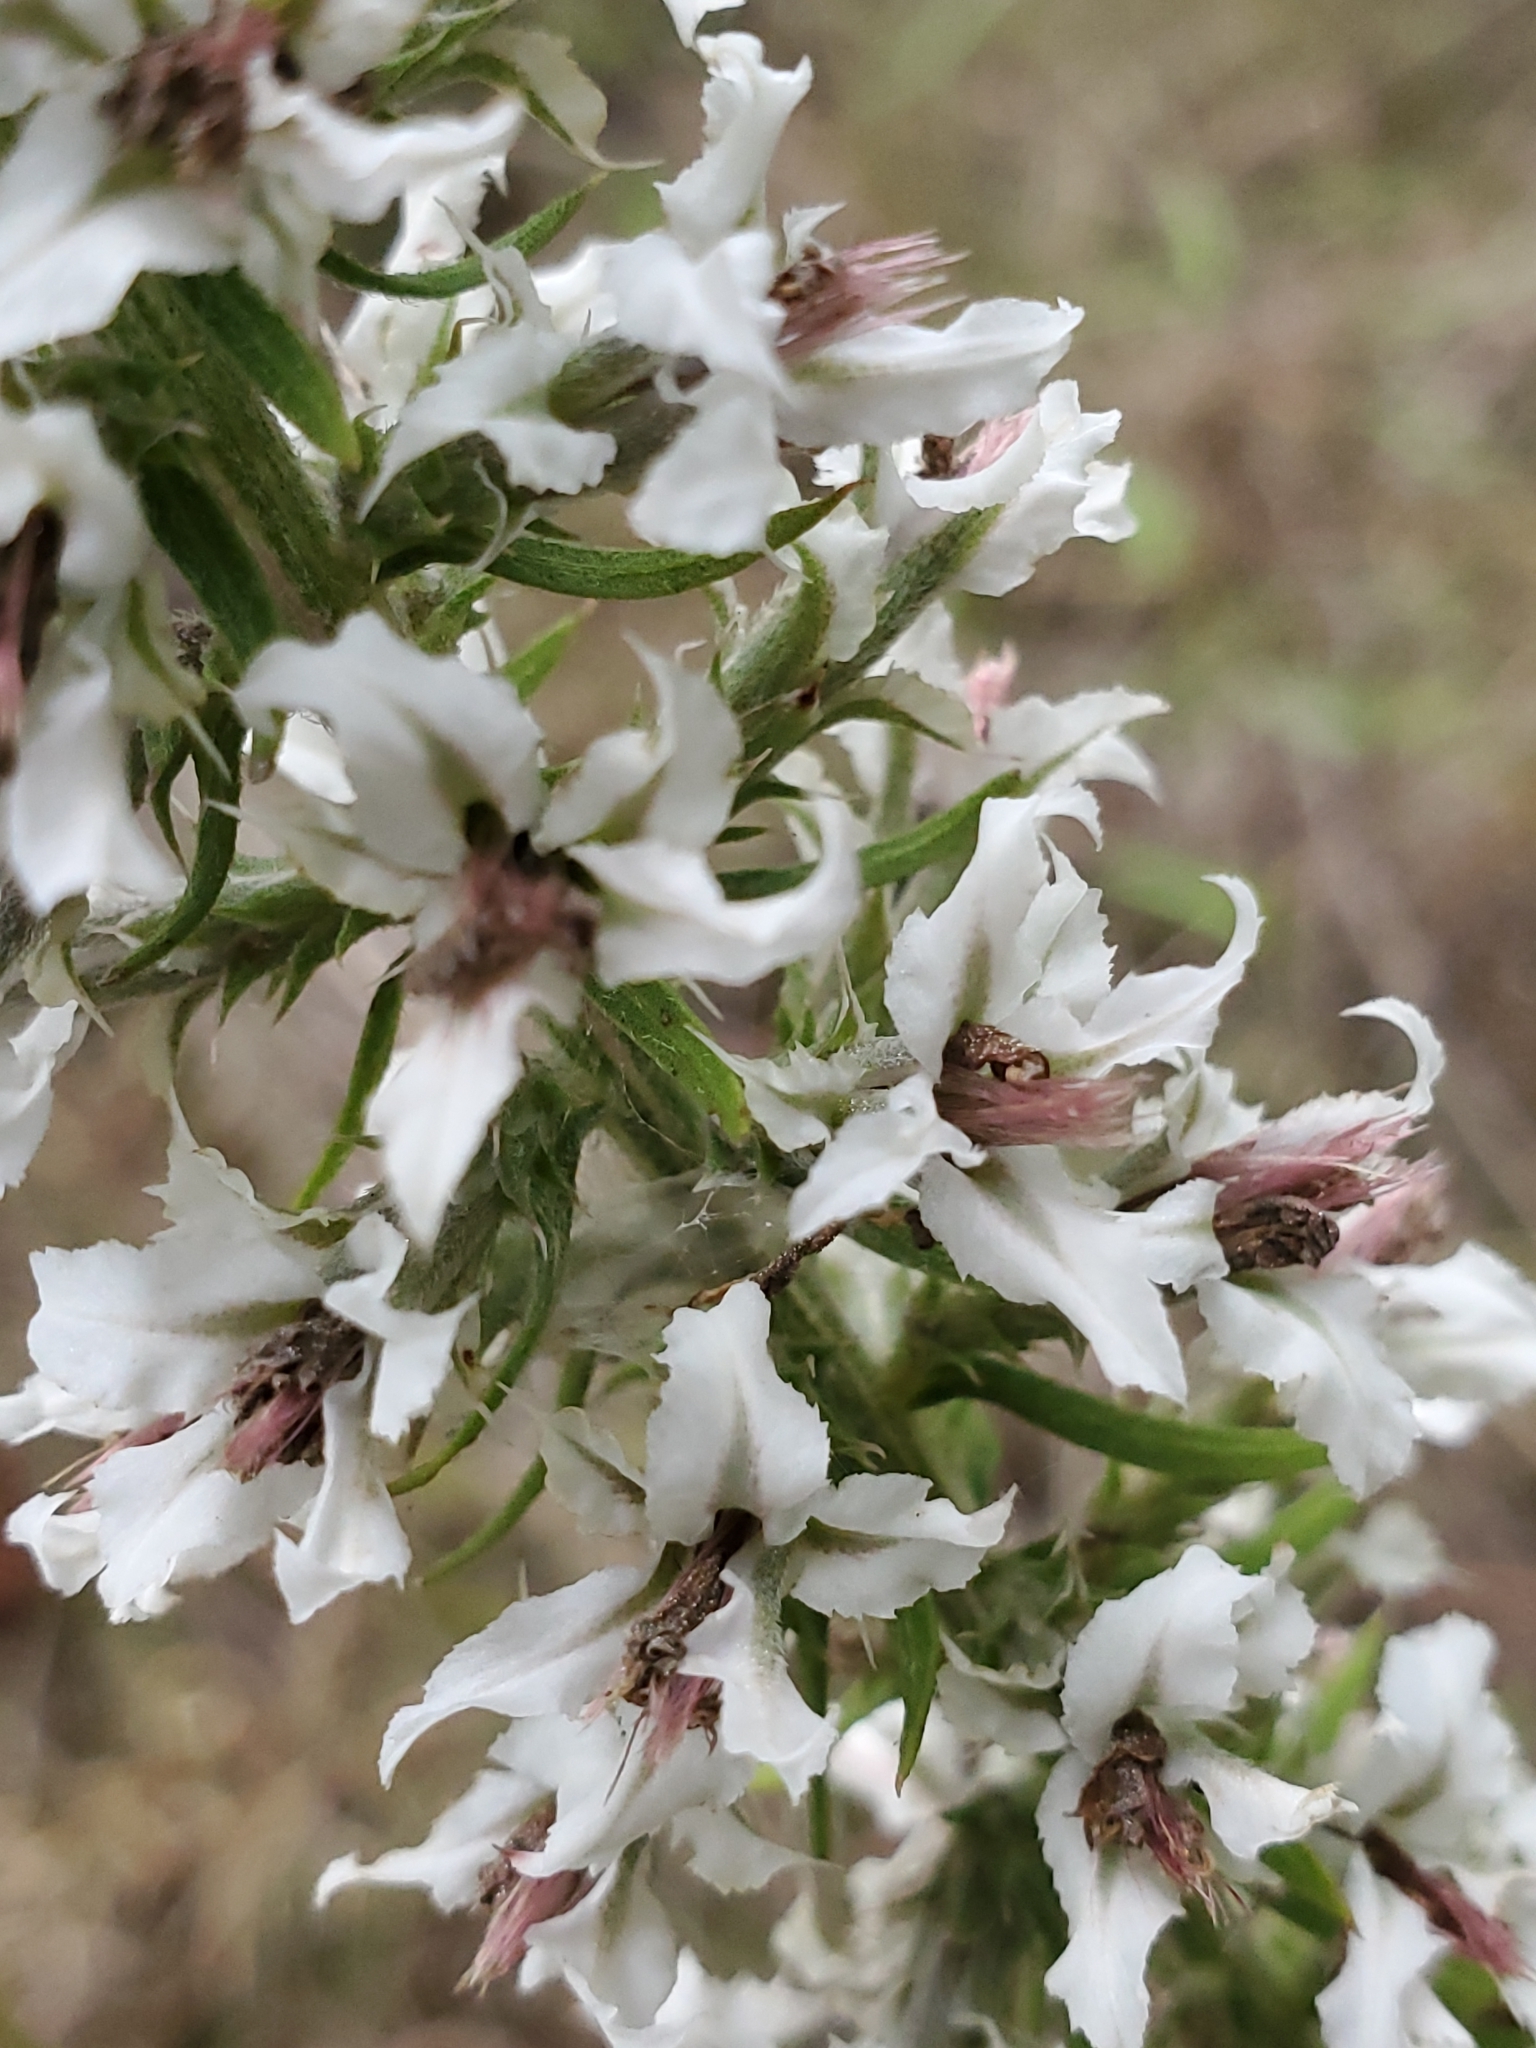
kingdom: Plantae
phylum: Tracheophyta
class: Magnoliopsida
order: Asterales
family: Asteraceae
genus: Liatris
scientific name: Liatris hesperelegans
